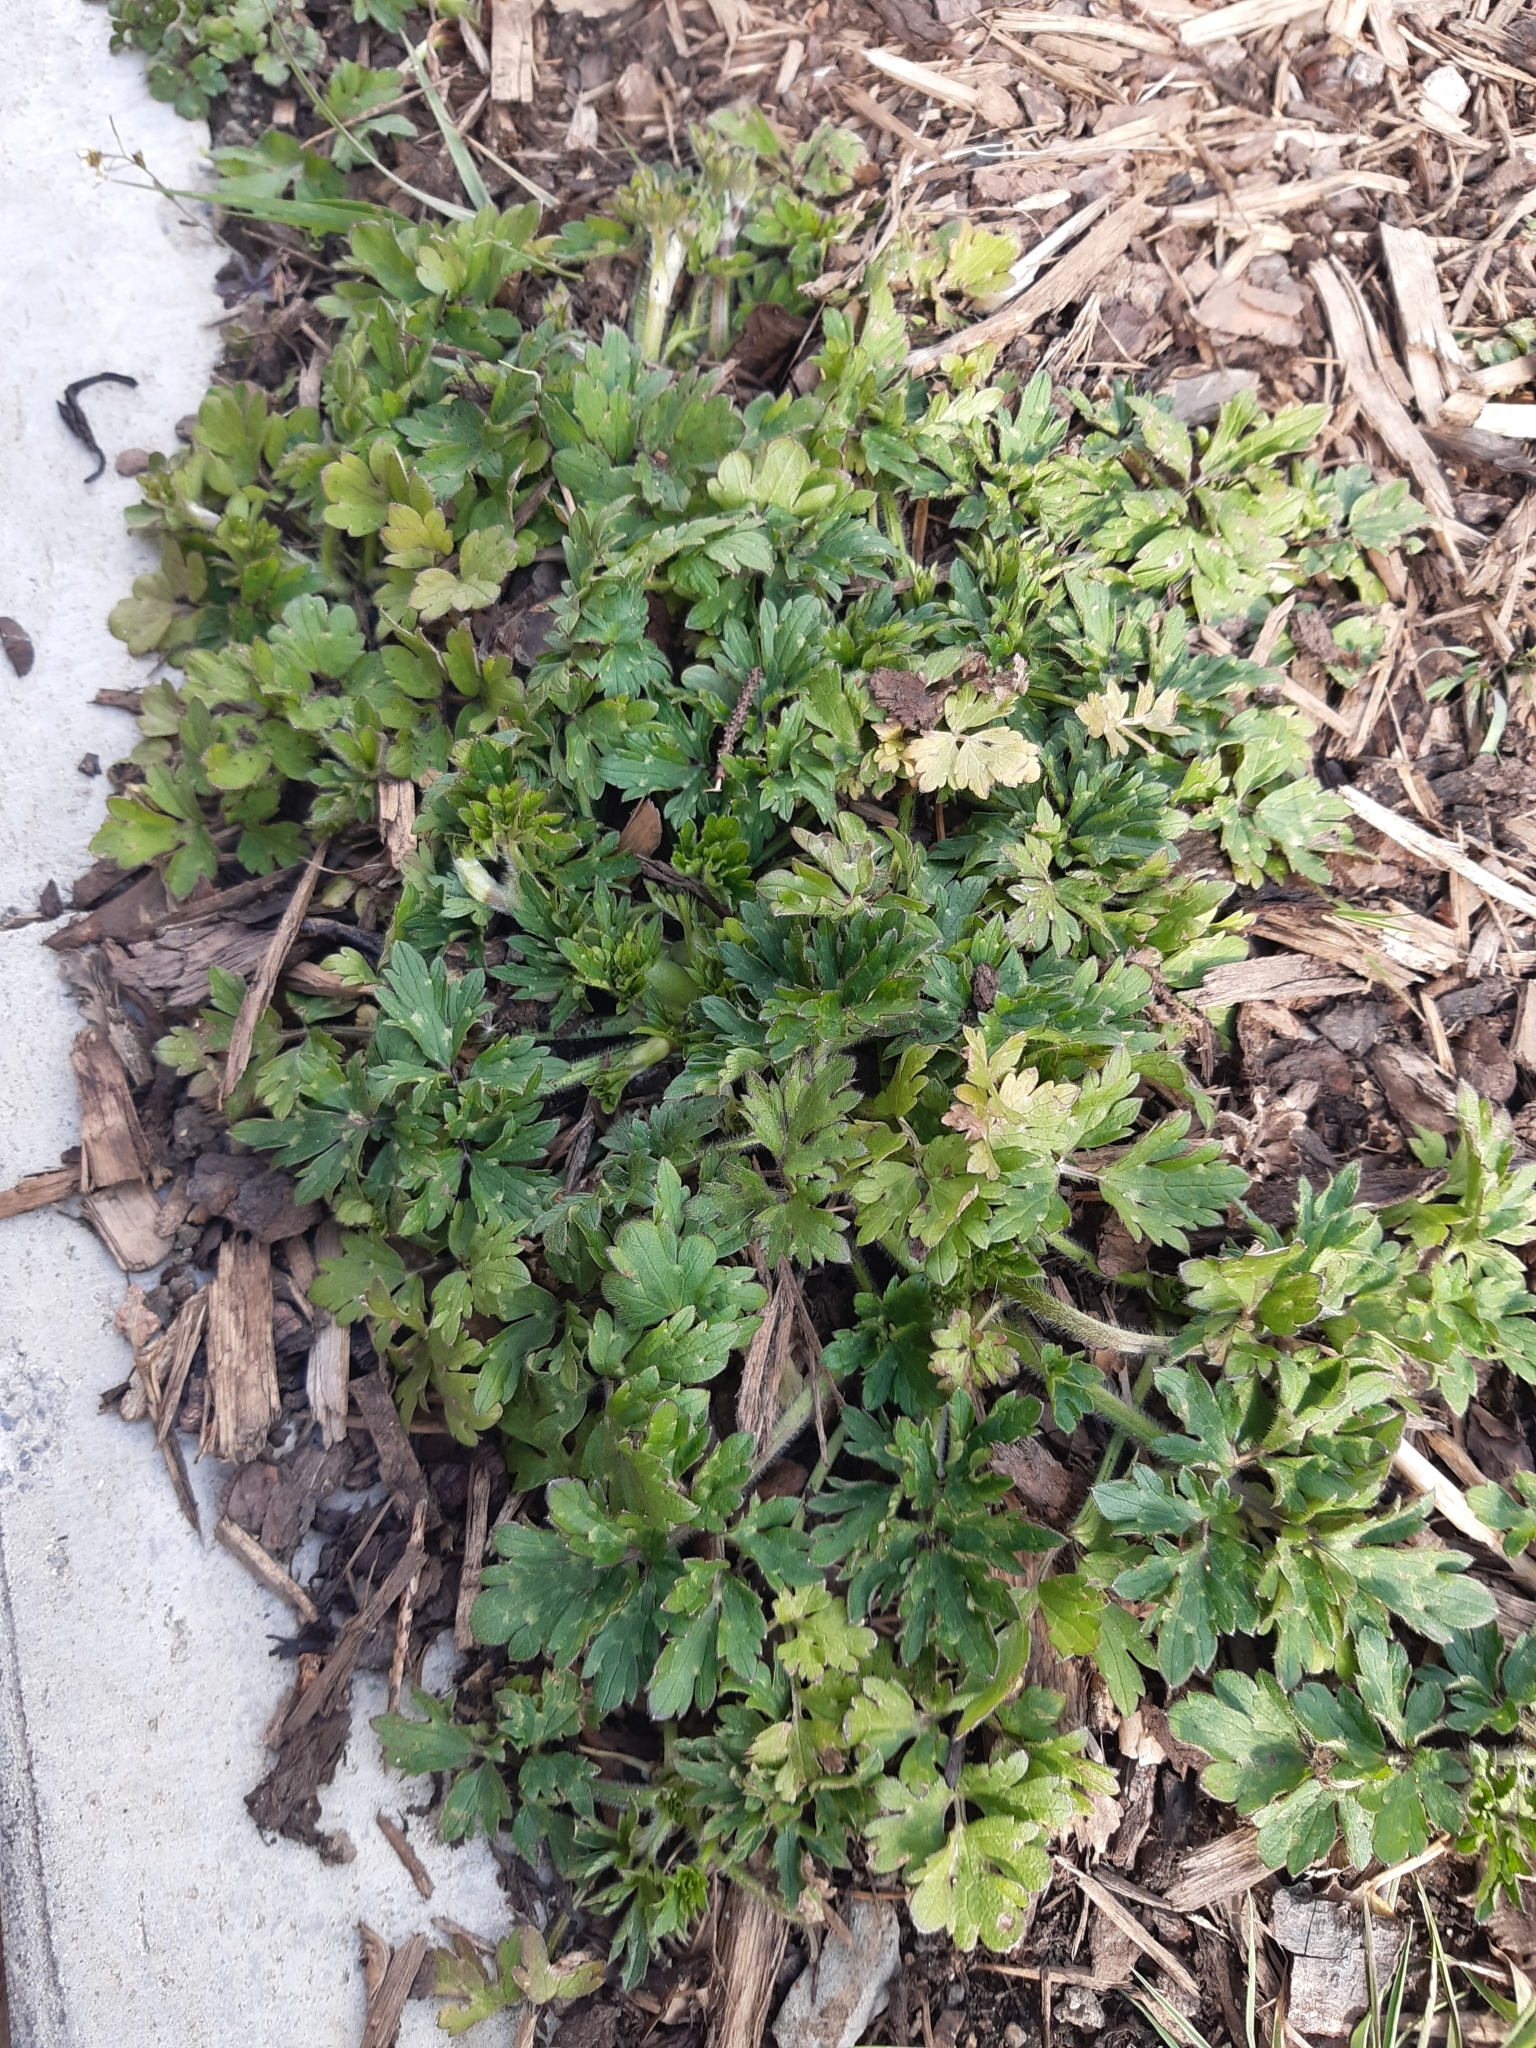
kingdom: Plantae
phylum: Tracheophyta
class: Magnoliopsida
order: Ranunculales
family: Ranunculaceae
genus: Ranunculus
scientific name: Ranunculus repens
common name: Creeping buttercup
